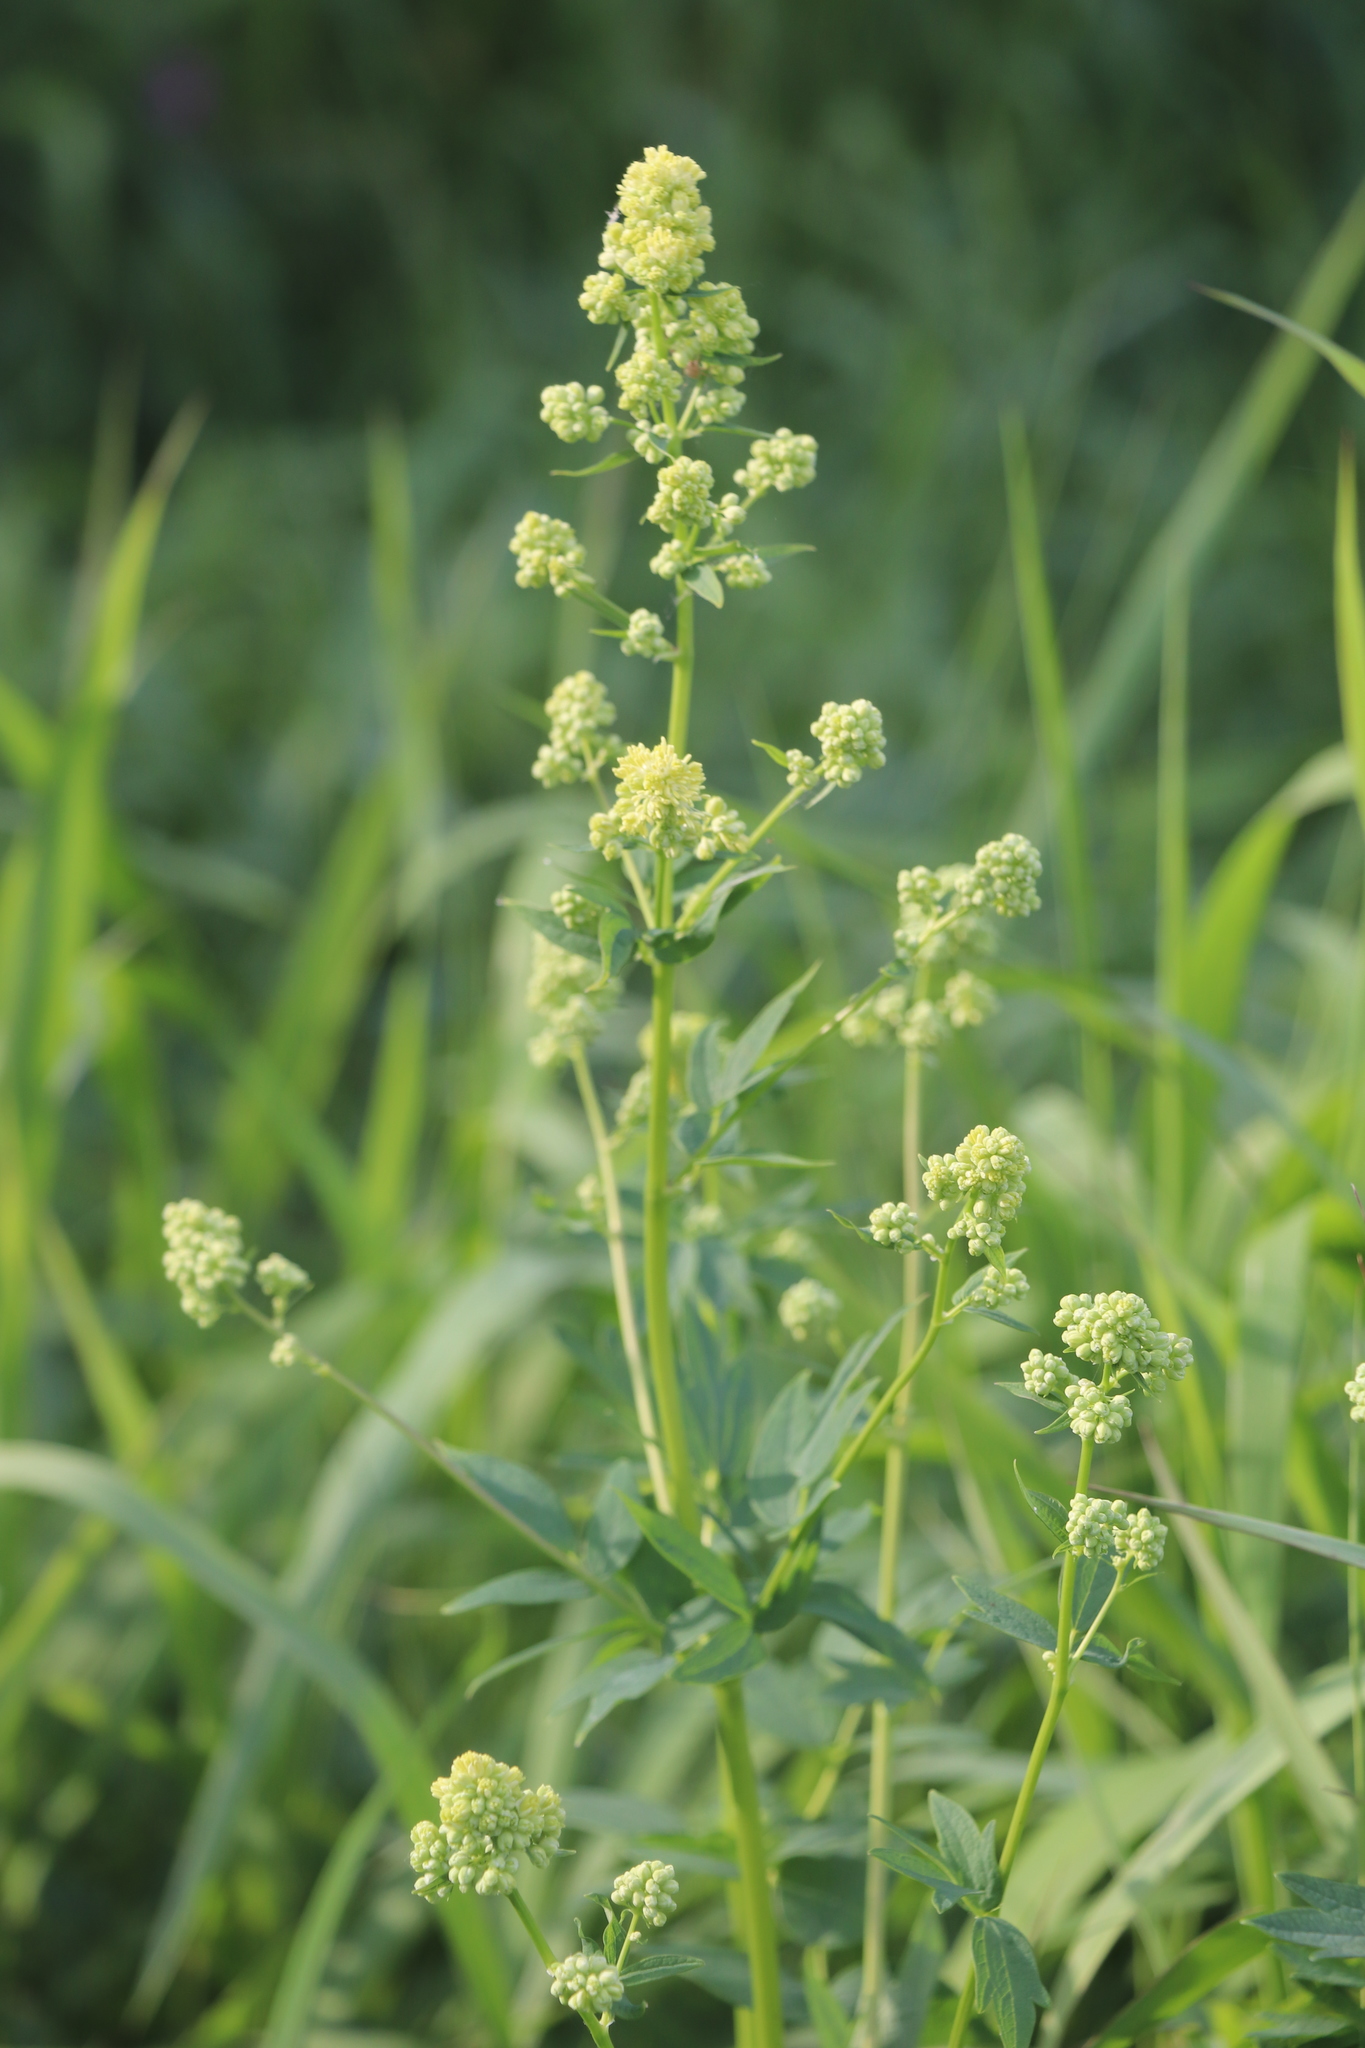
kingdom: Plantae
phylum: Tracheophyta
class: Magnoliopsida
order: Ranunculales
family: Ranunculaceae
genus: Thalictrum
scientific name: Thalictrum simplex
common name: Small meadow-rue
